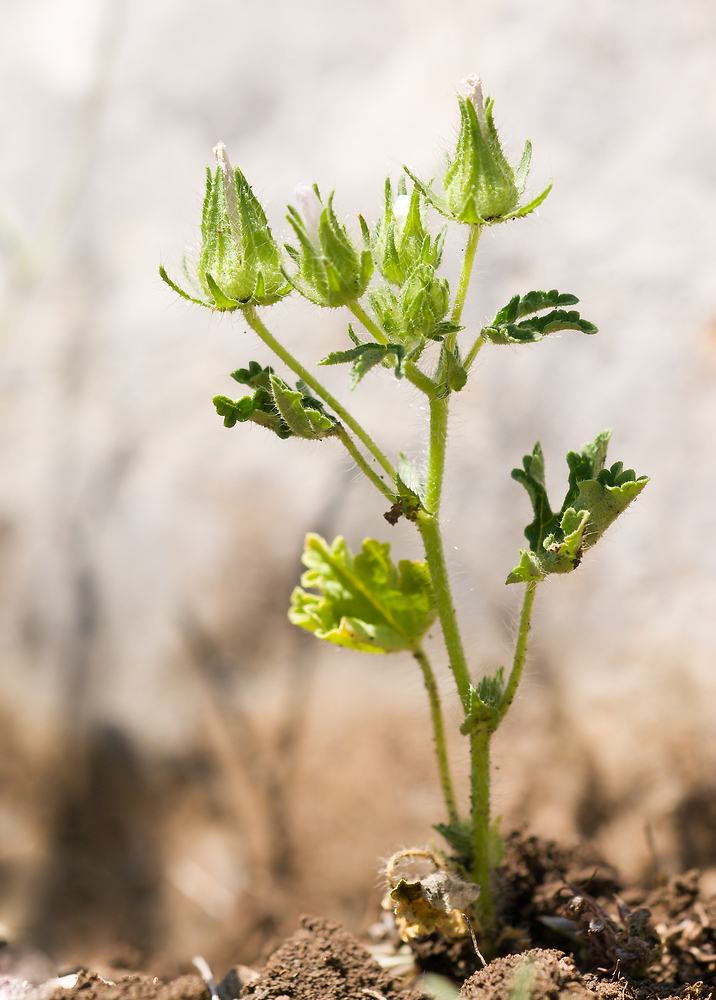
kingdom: Plantae
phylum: Tracheophyta
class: Magnoliopsida
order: Malvales
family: Malvaceae
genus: Althaea
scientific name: Althaea hirsuta
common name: Rough marsh-mallow
